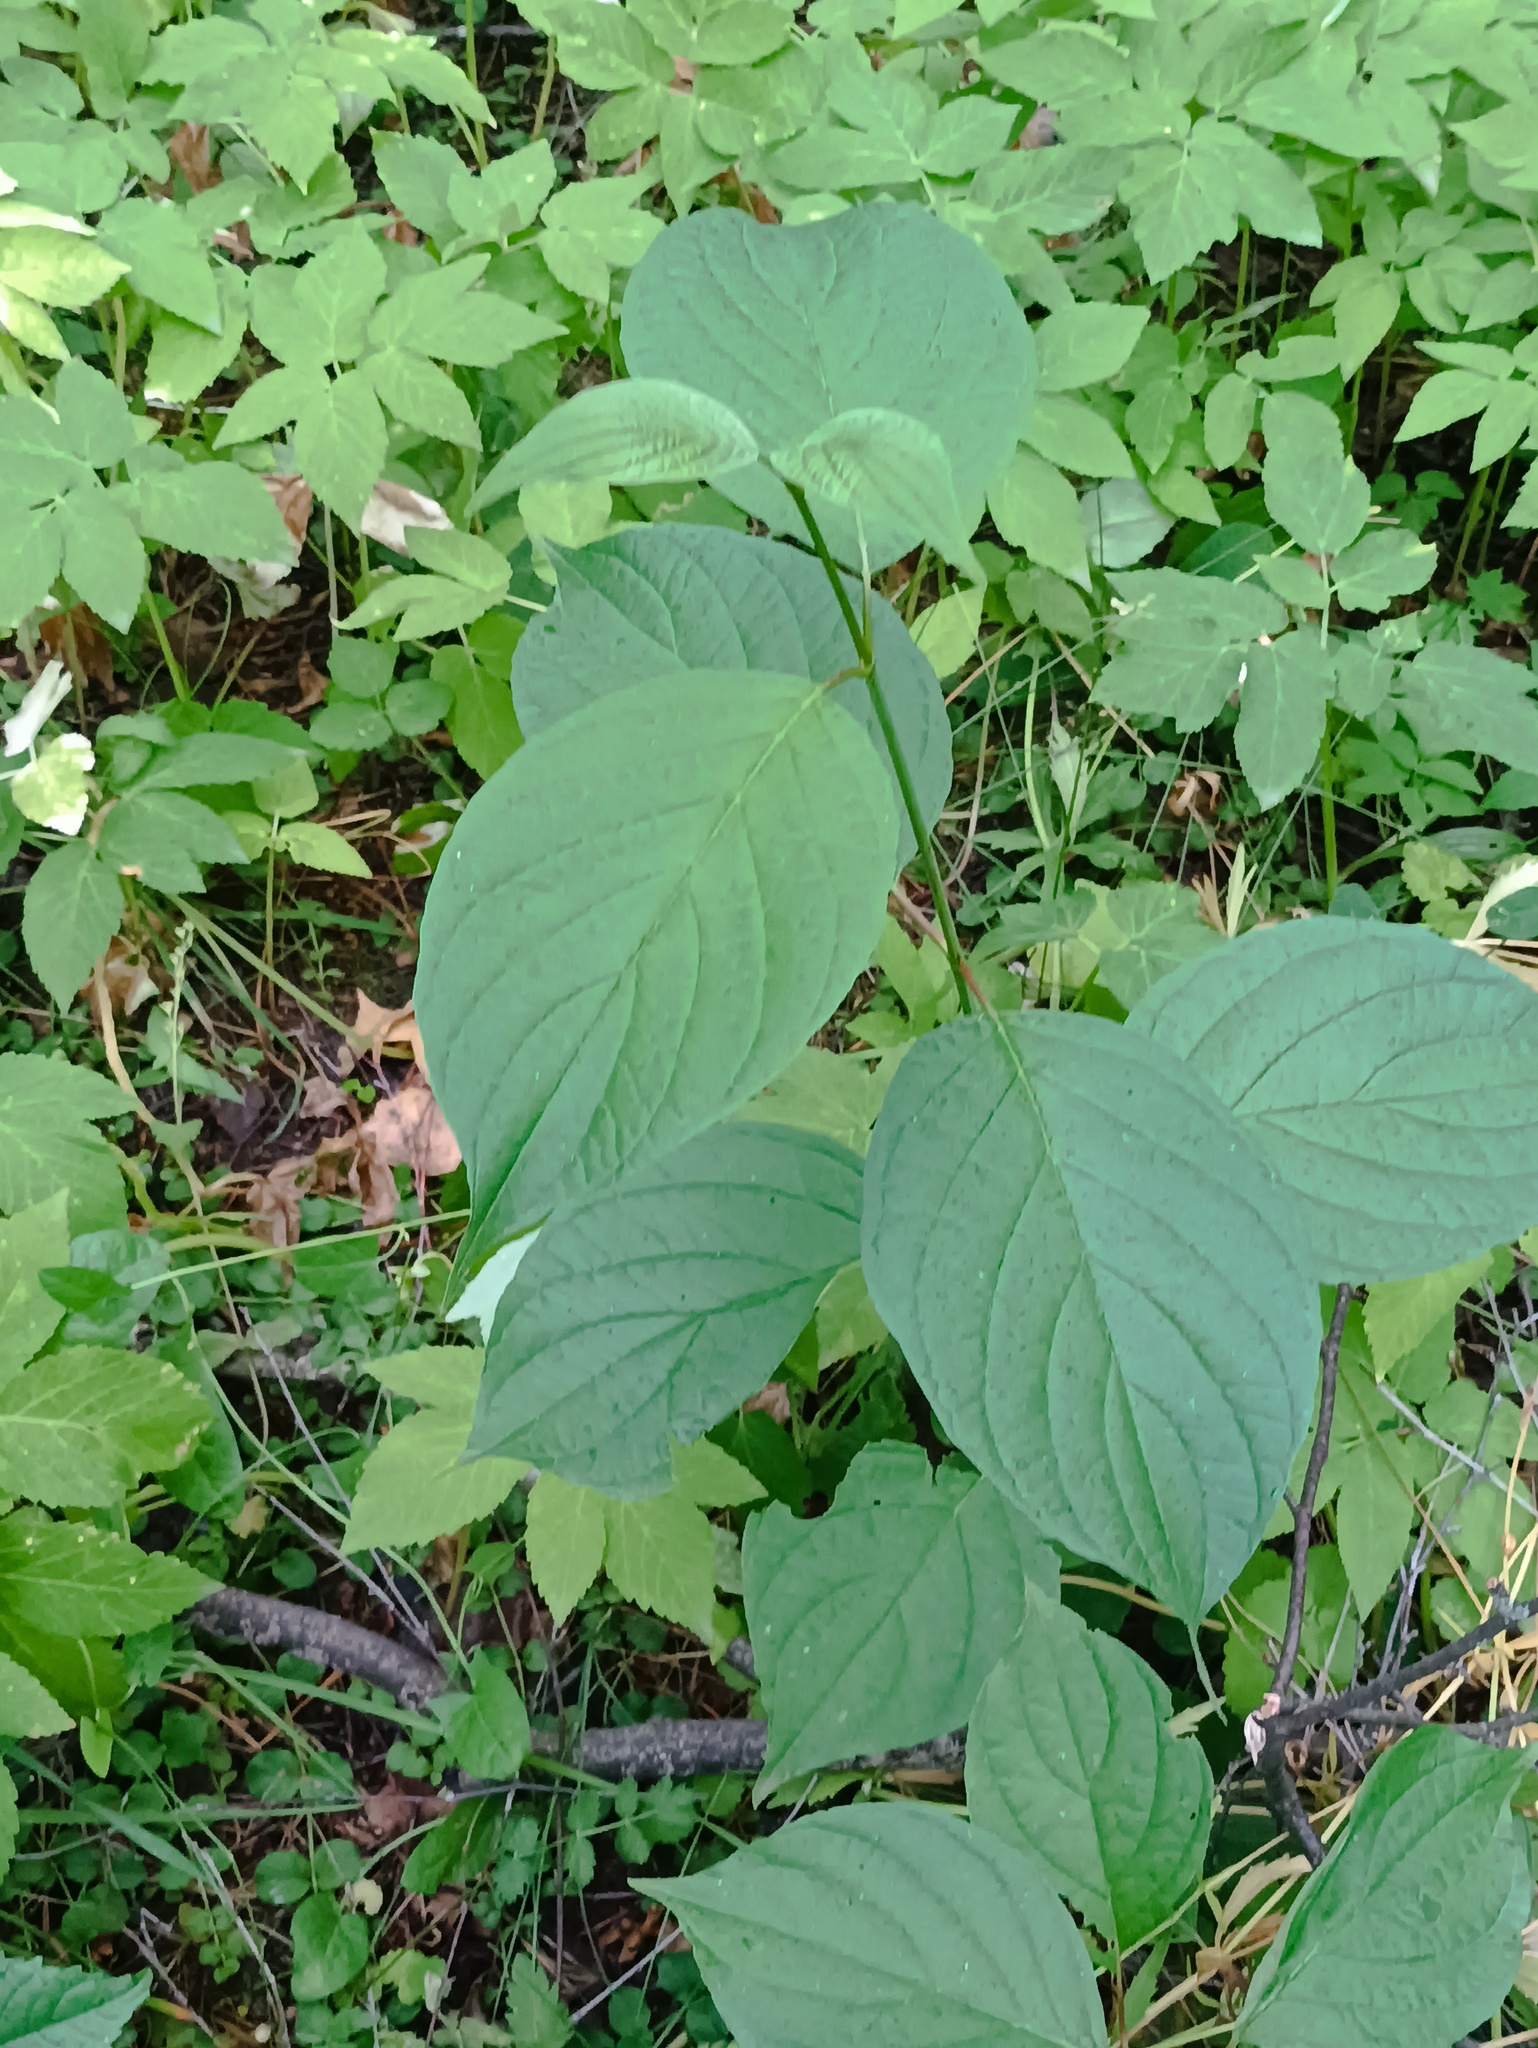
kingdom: Plantae
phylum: Tracheophyta
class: Magnoliopsida
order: Cornales
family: Cornaceae
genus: Cornus
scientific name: Cornus alba
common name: White dogwood
